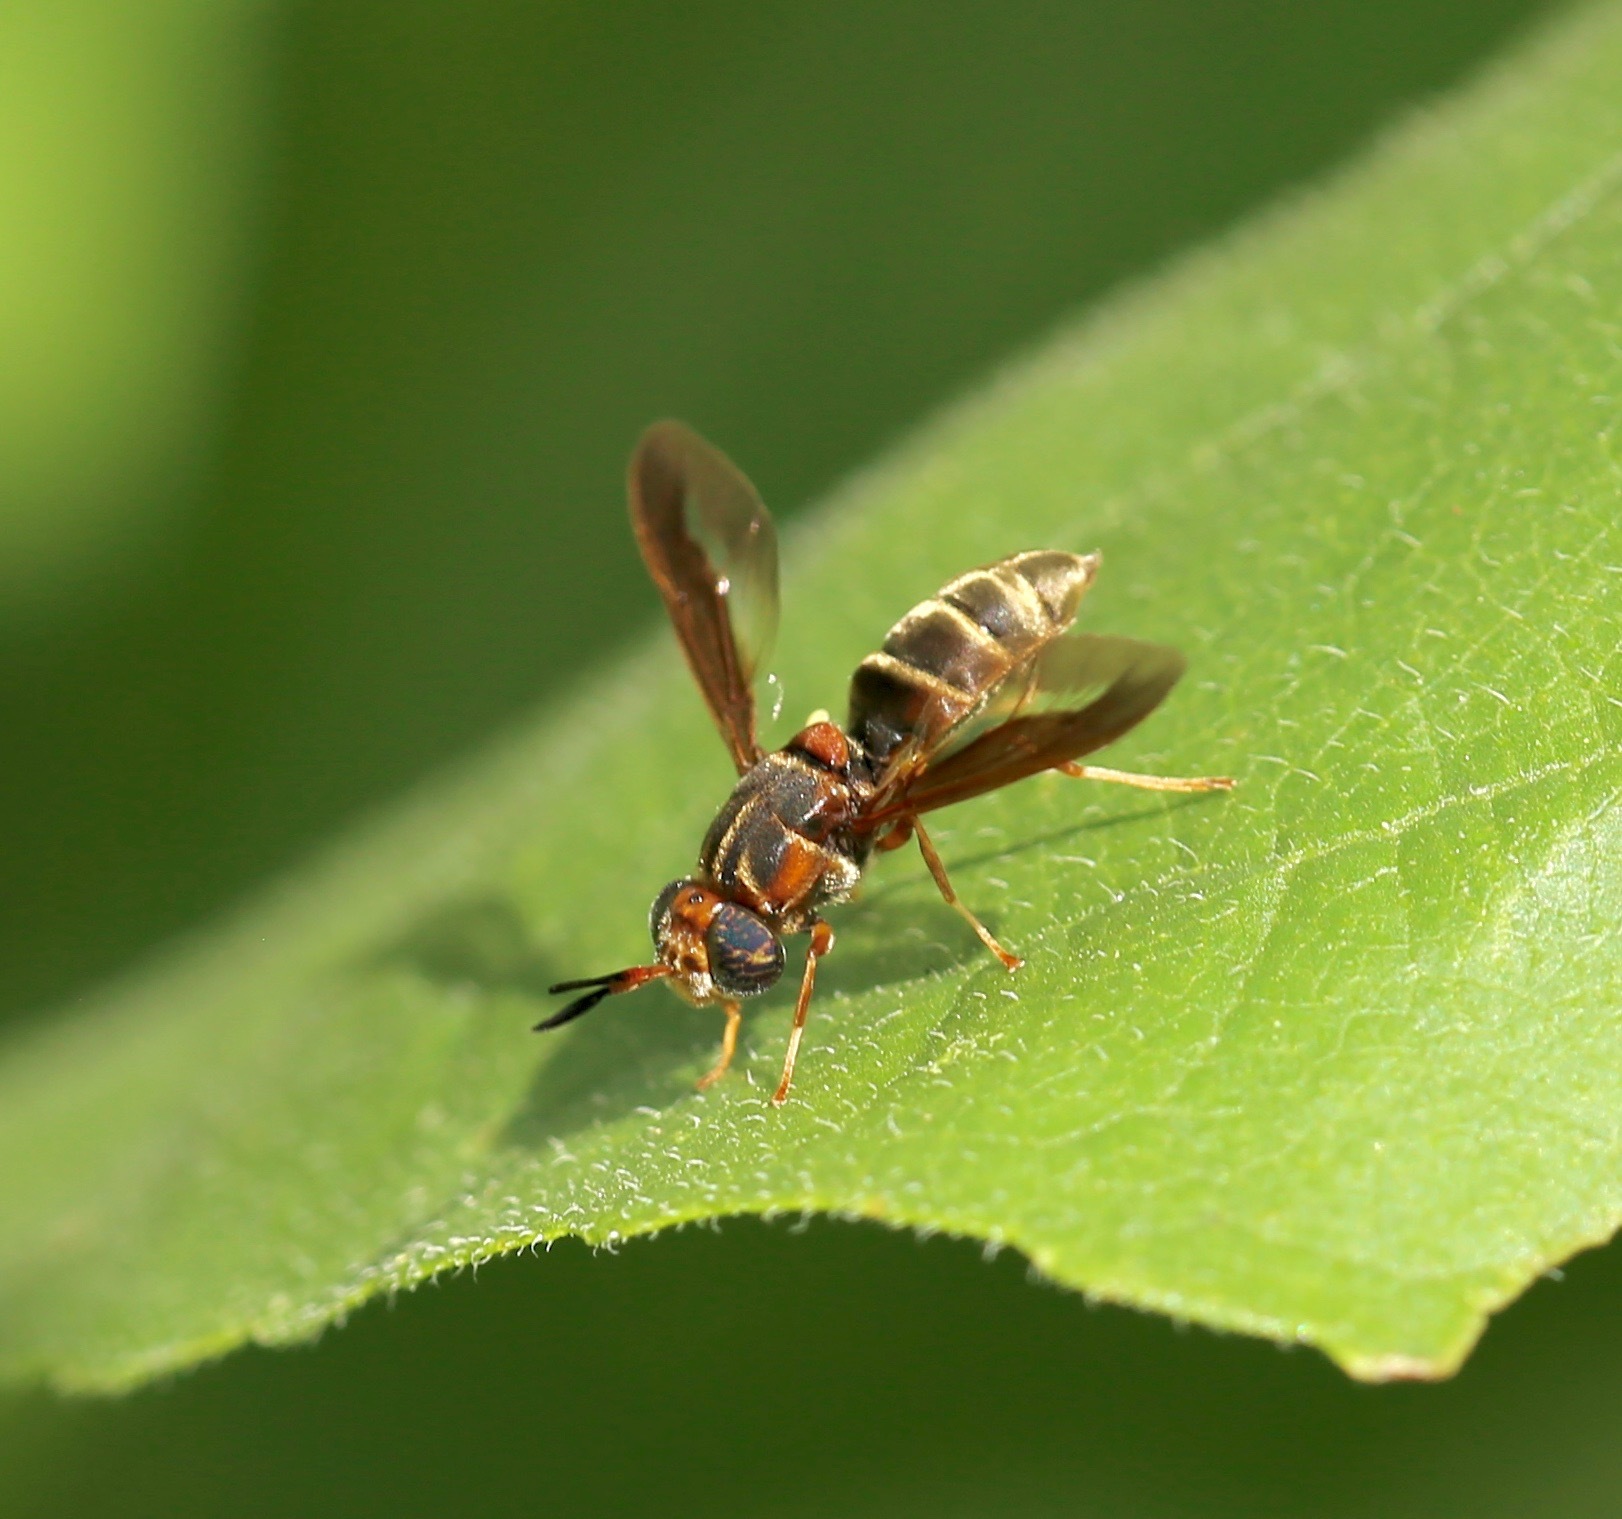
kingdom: Animalia
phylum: Arthropoda
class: Insecta
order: Diptera
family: Stratiomyidae
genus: Hermetia
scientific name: Hermetia comstocki
